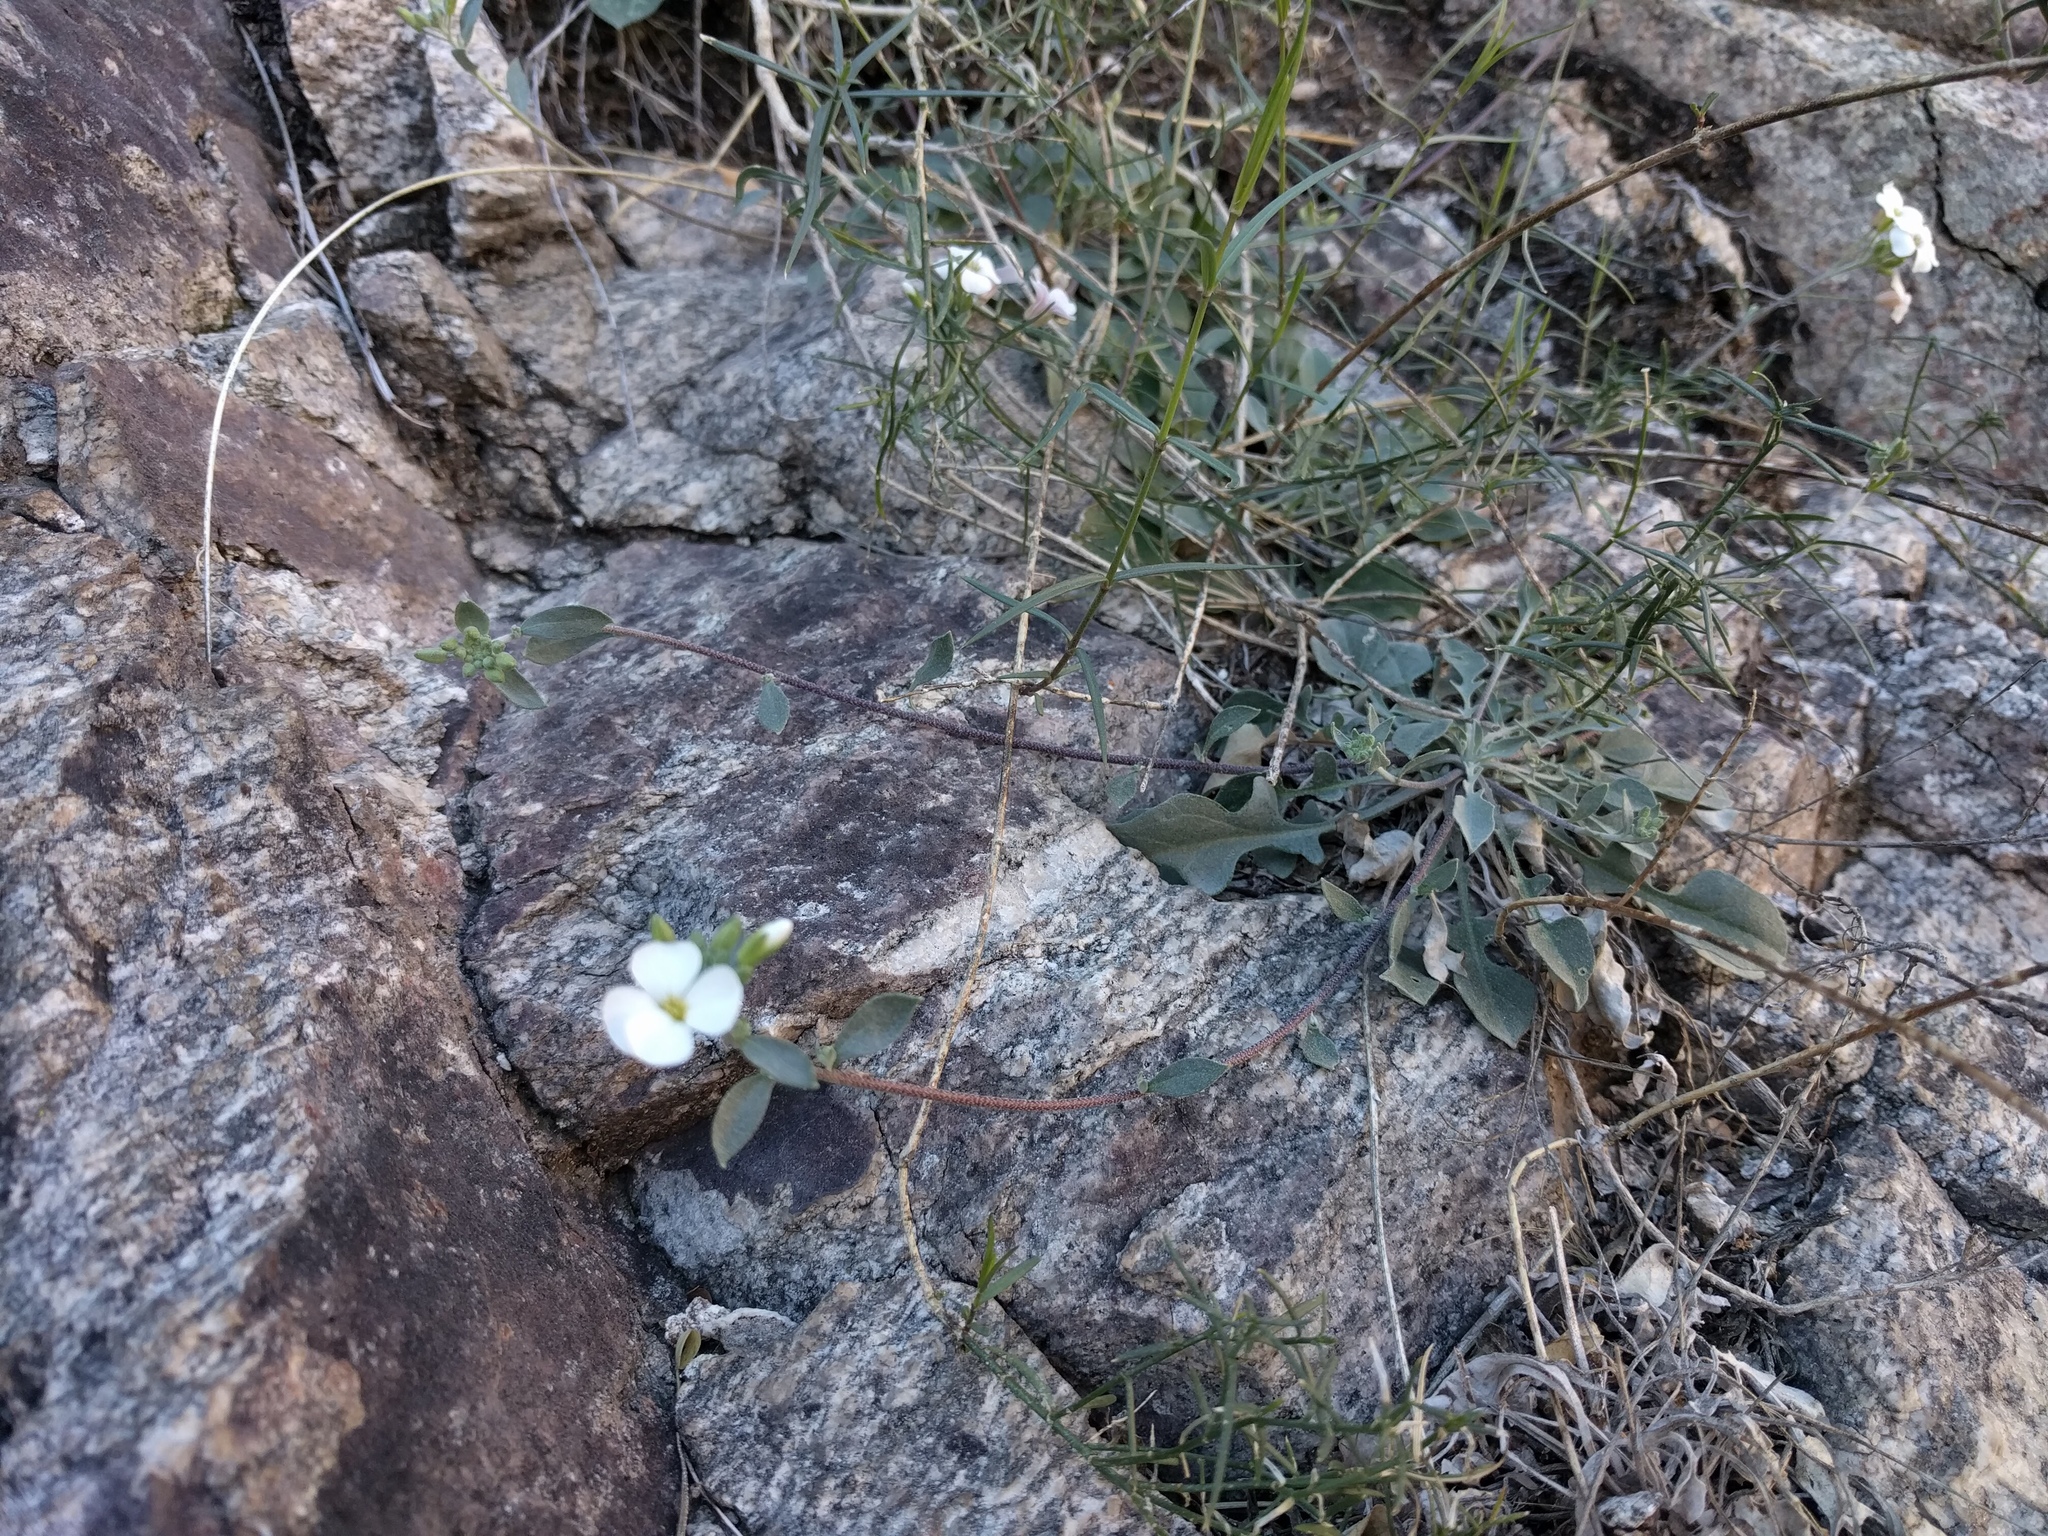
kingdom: Plantae
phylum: Tracheophyta
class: Magnoliopsida
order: Brassicales
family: Brassicaceae
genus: Physaria
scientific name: Physaria purpurea
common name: Rose bladderpod
